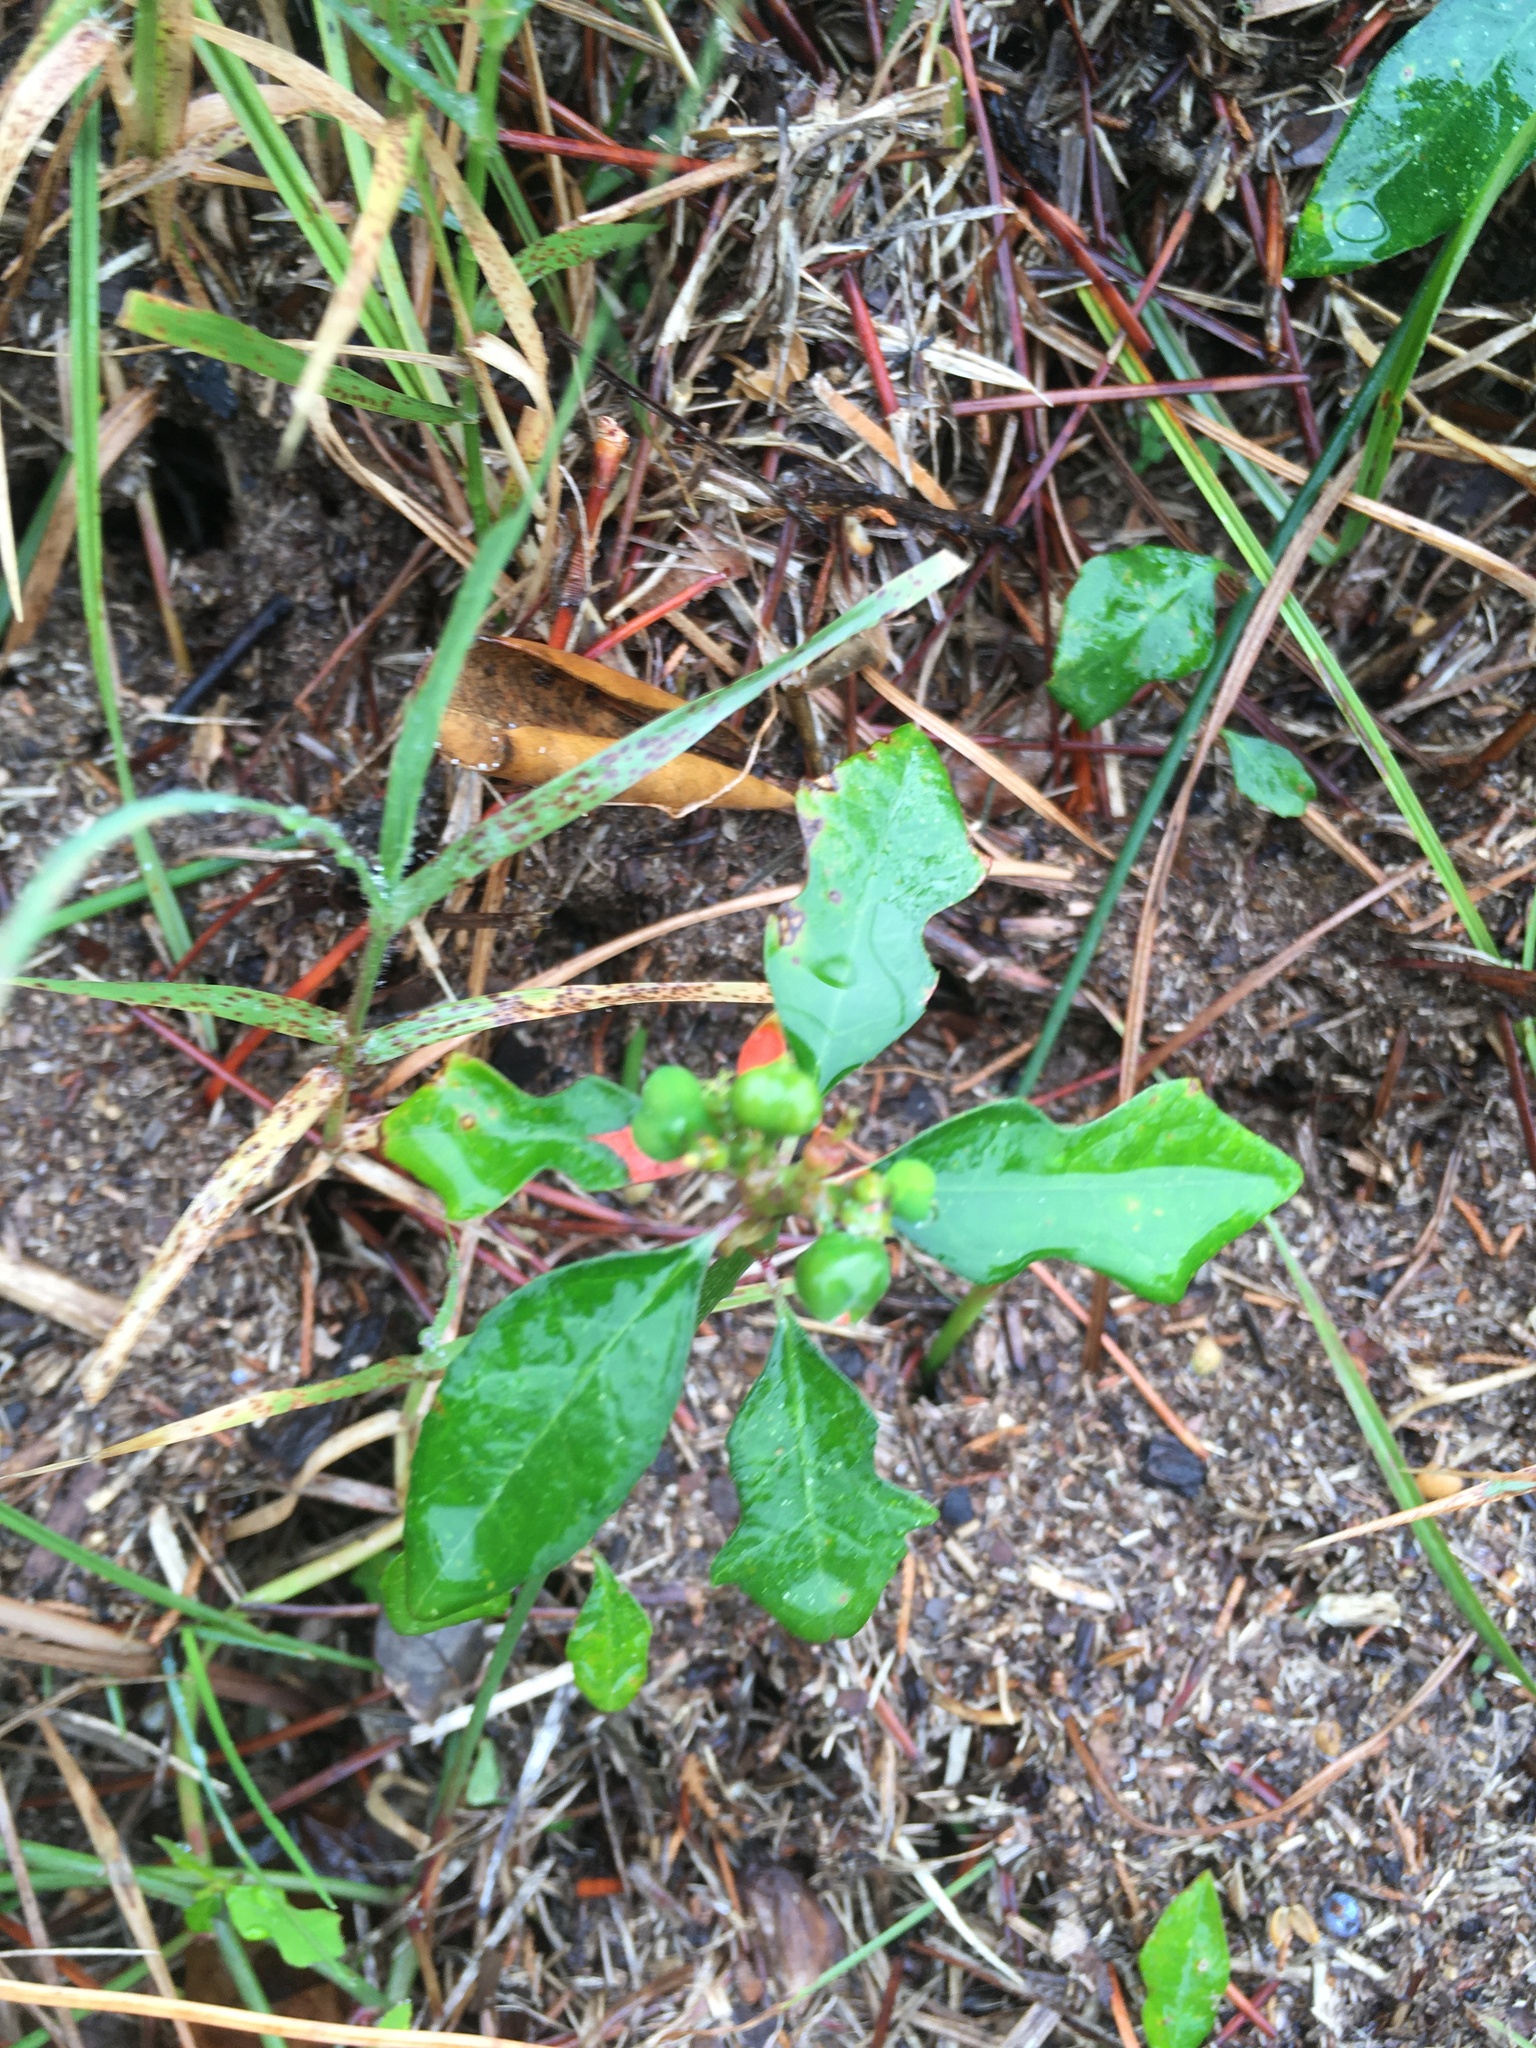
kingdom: Plantae
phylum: Tracheophyta
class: Magnoliopsida
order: Malpighiales
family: Euphorbiaceae
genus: Euphorbia
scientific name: Euphorbia heterophylla
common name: Mexican fireplant
